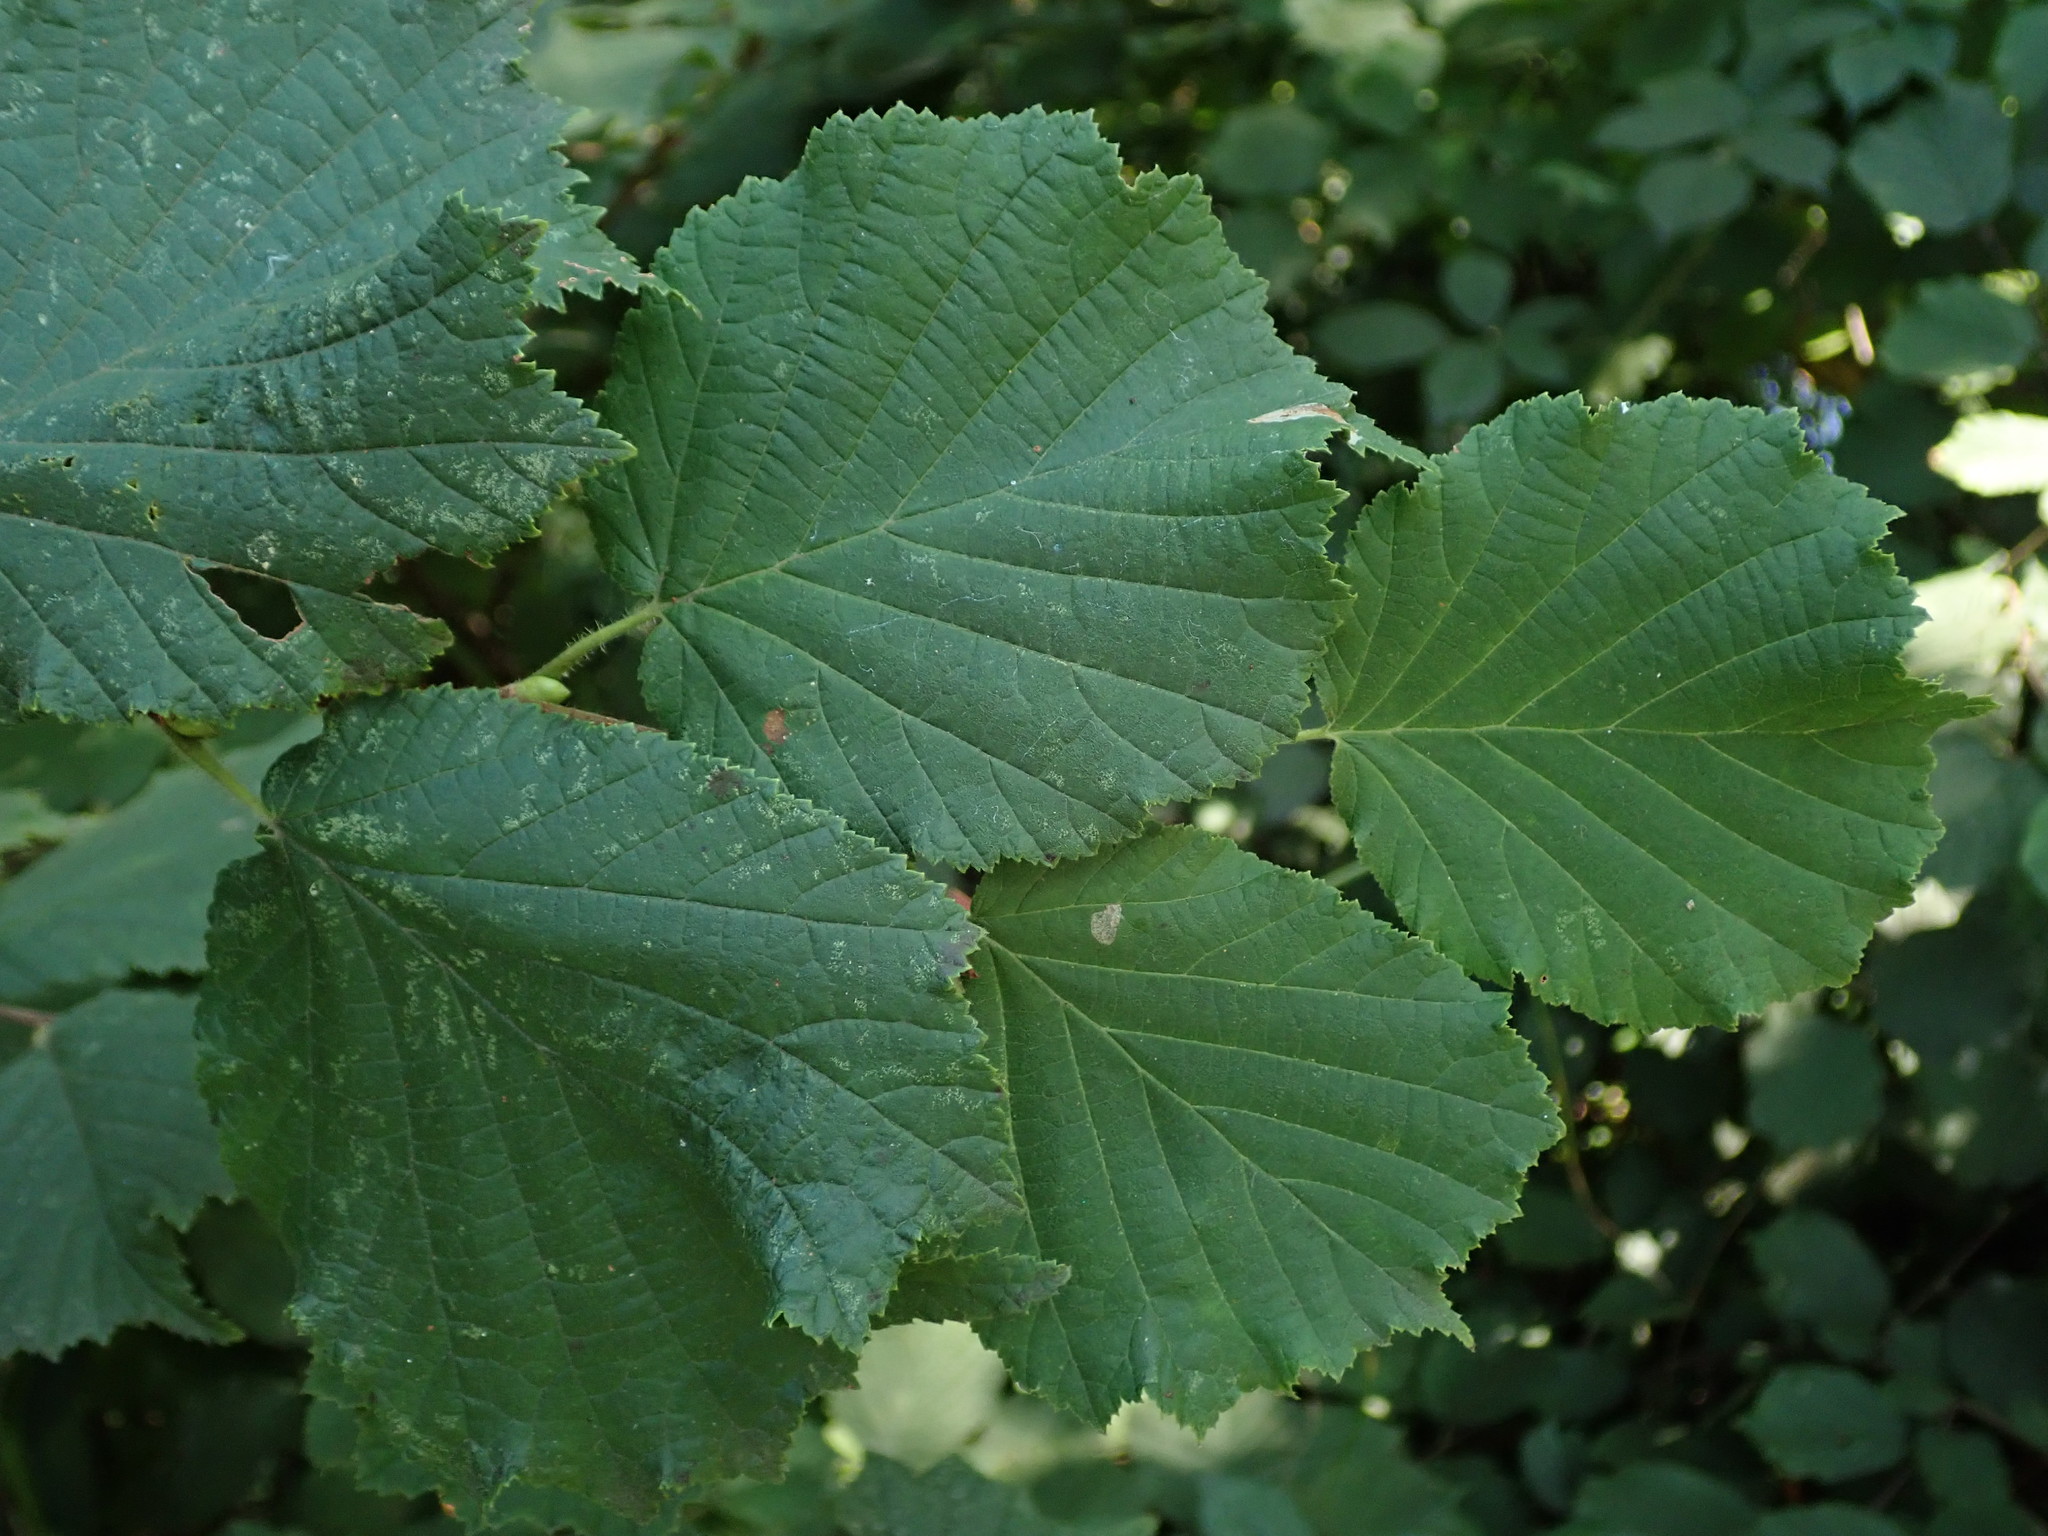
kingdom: Plantae
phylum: Tracheophyta
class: Magnoliopsida
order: Fagales
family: Betulaceae
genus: Corylus
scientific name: Corylus avellana
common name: European hazel
